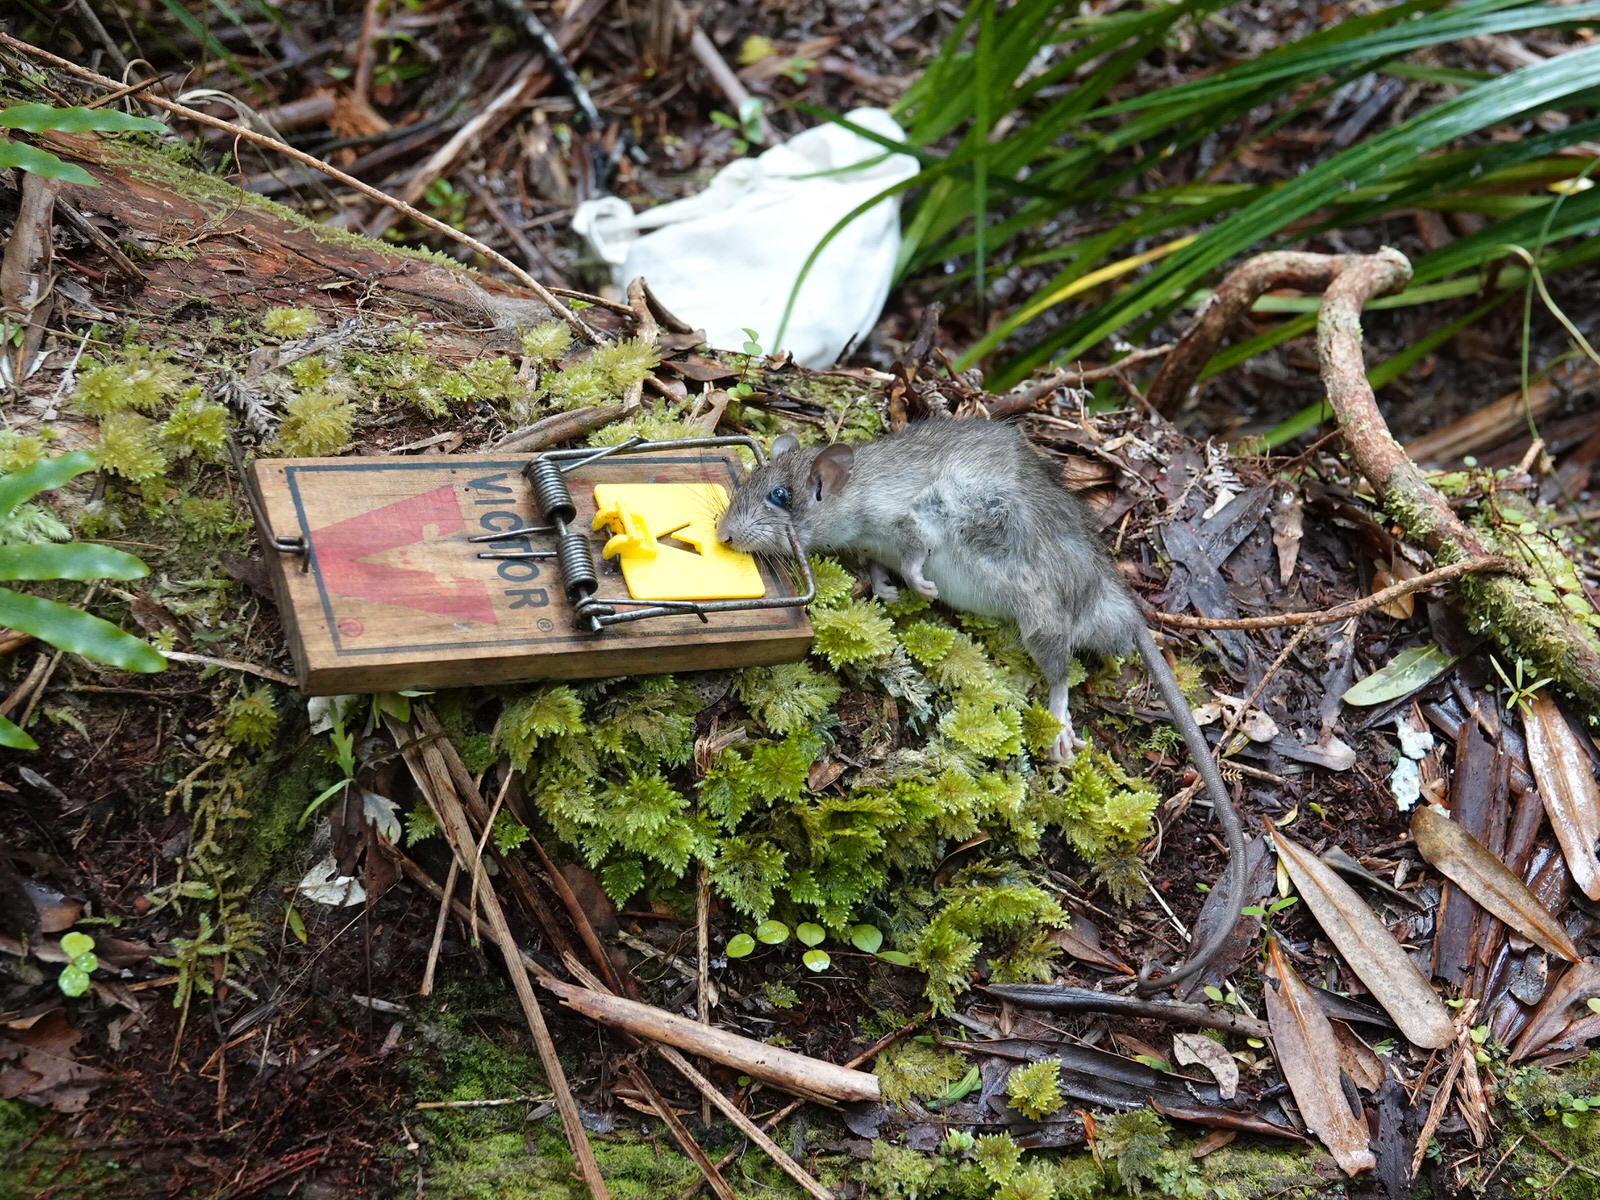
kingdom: Animalia
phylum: Chordata
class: Mammalia
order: Rodentia
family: Muridae
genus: Rattus
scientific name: Rattus rattus
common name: Black rat
